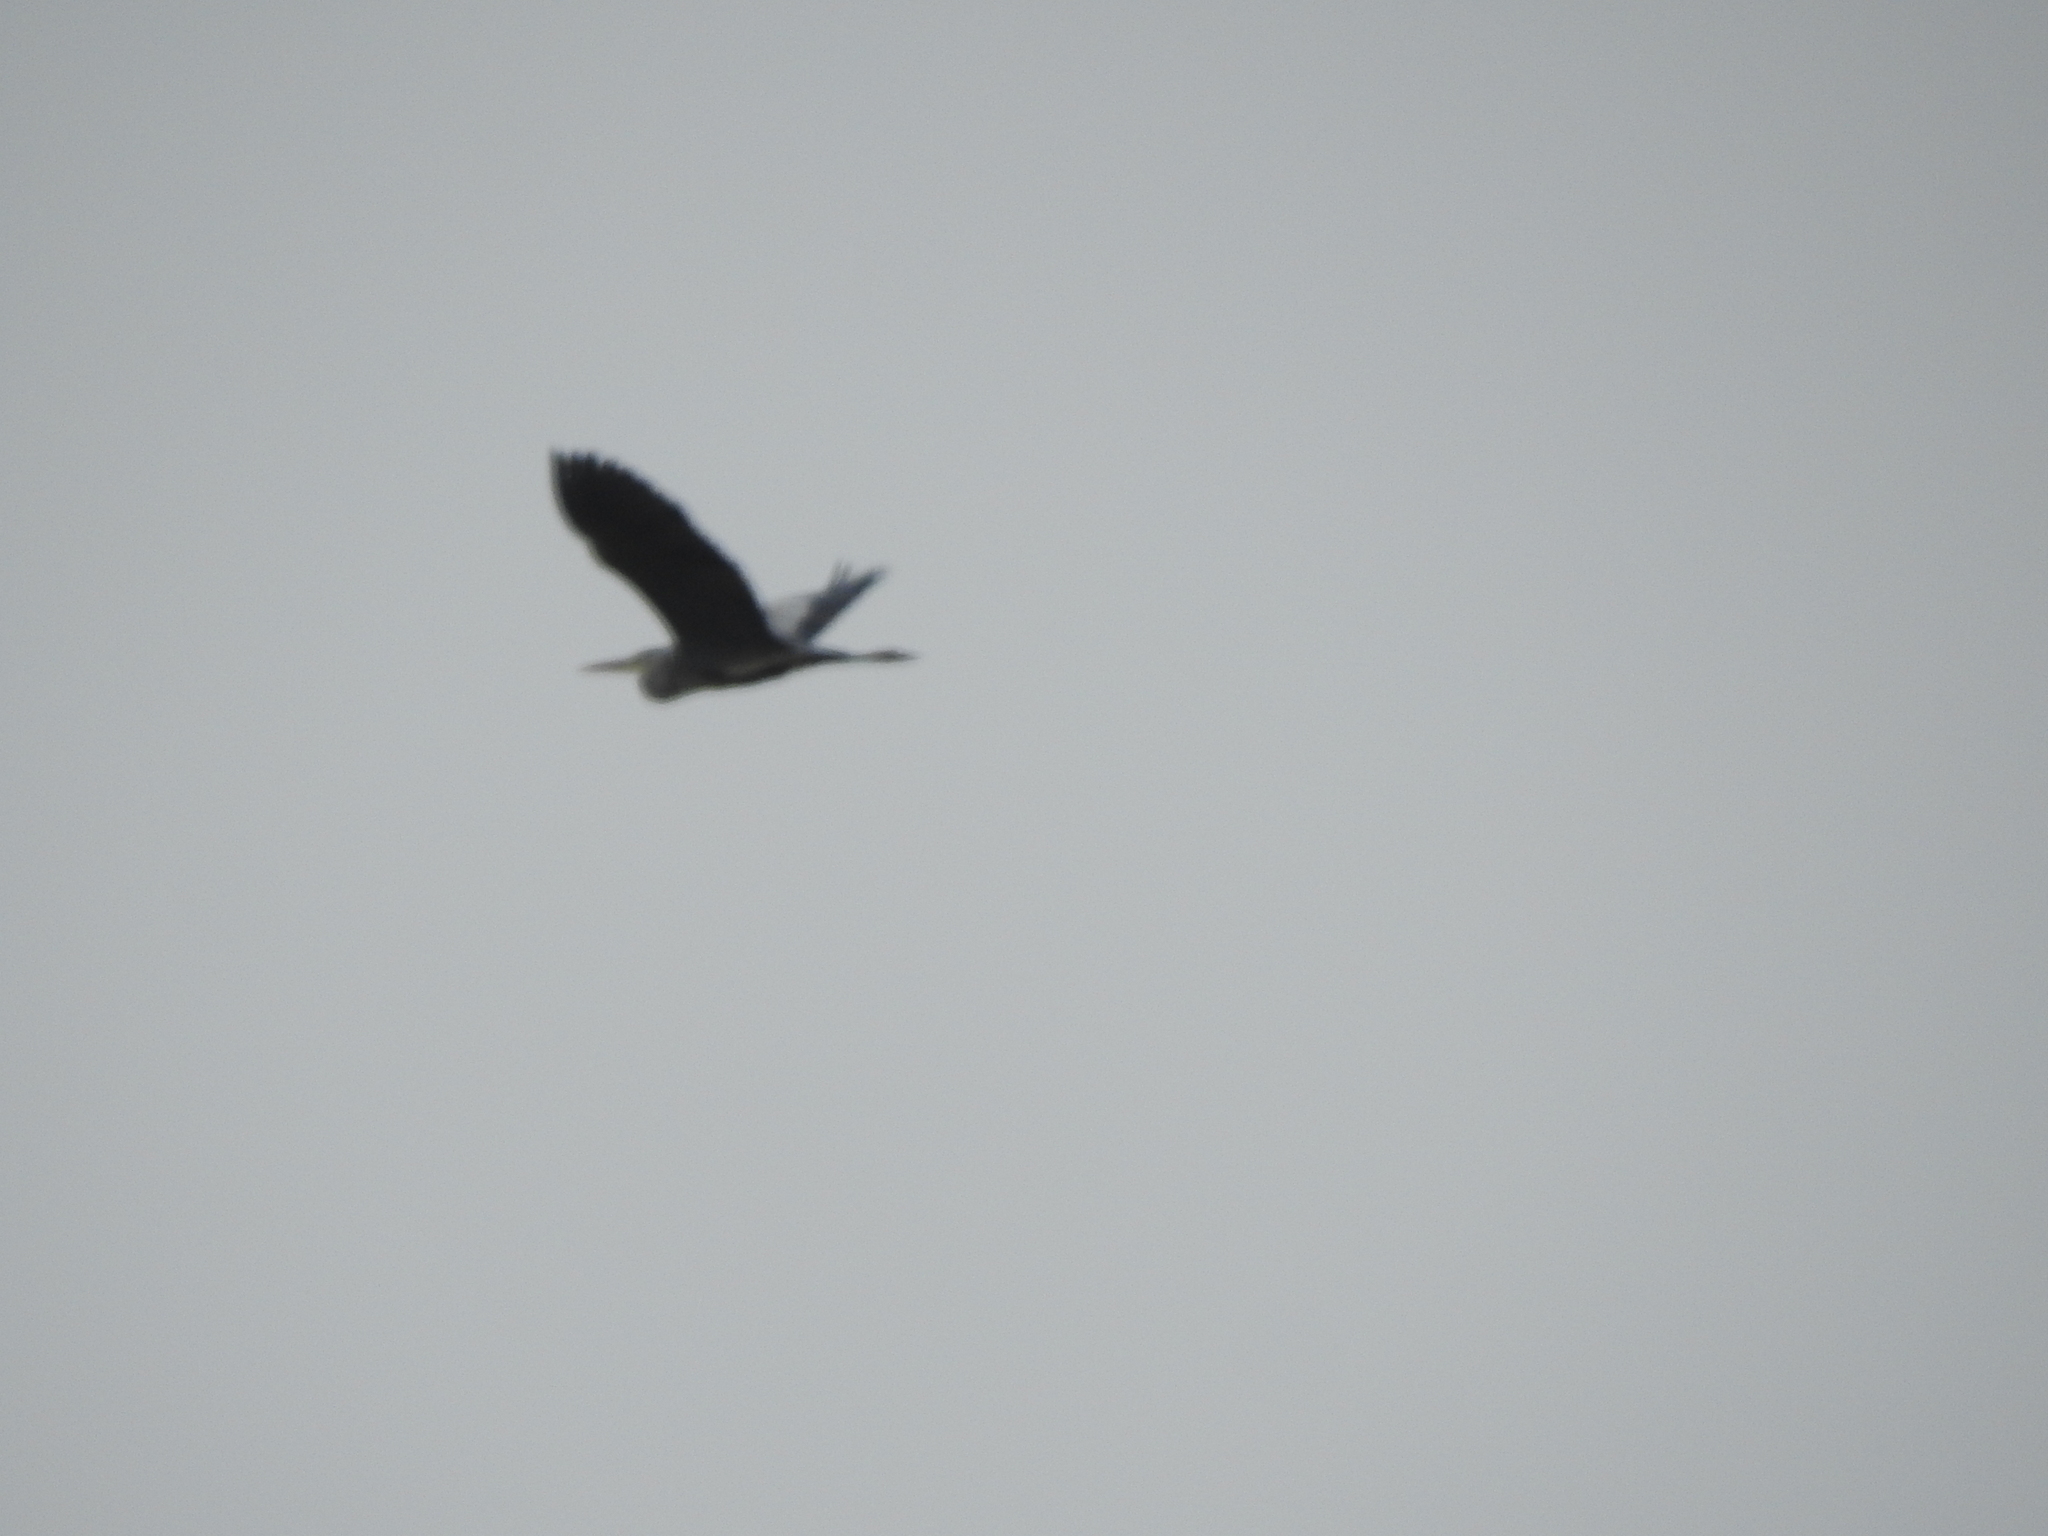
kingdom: Animalia
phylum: Chordata
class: Aves
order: Pelecaniformes
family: Ardeidae
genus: Ardea
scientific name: Ardea cinerea
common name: Grey heron
